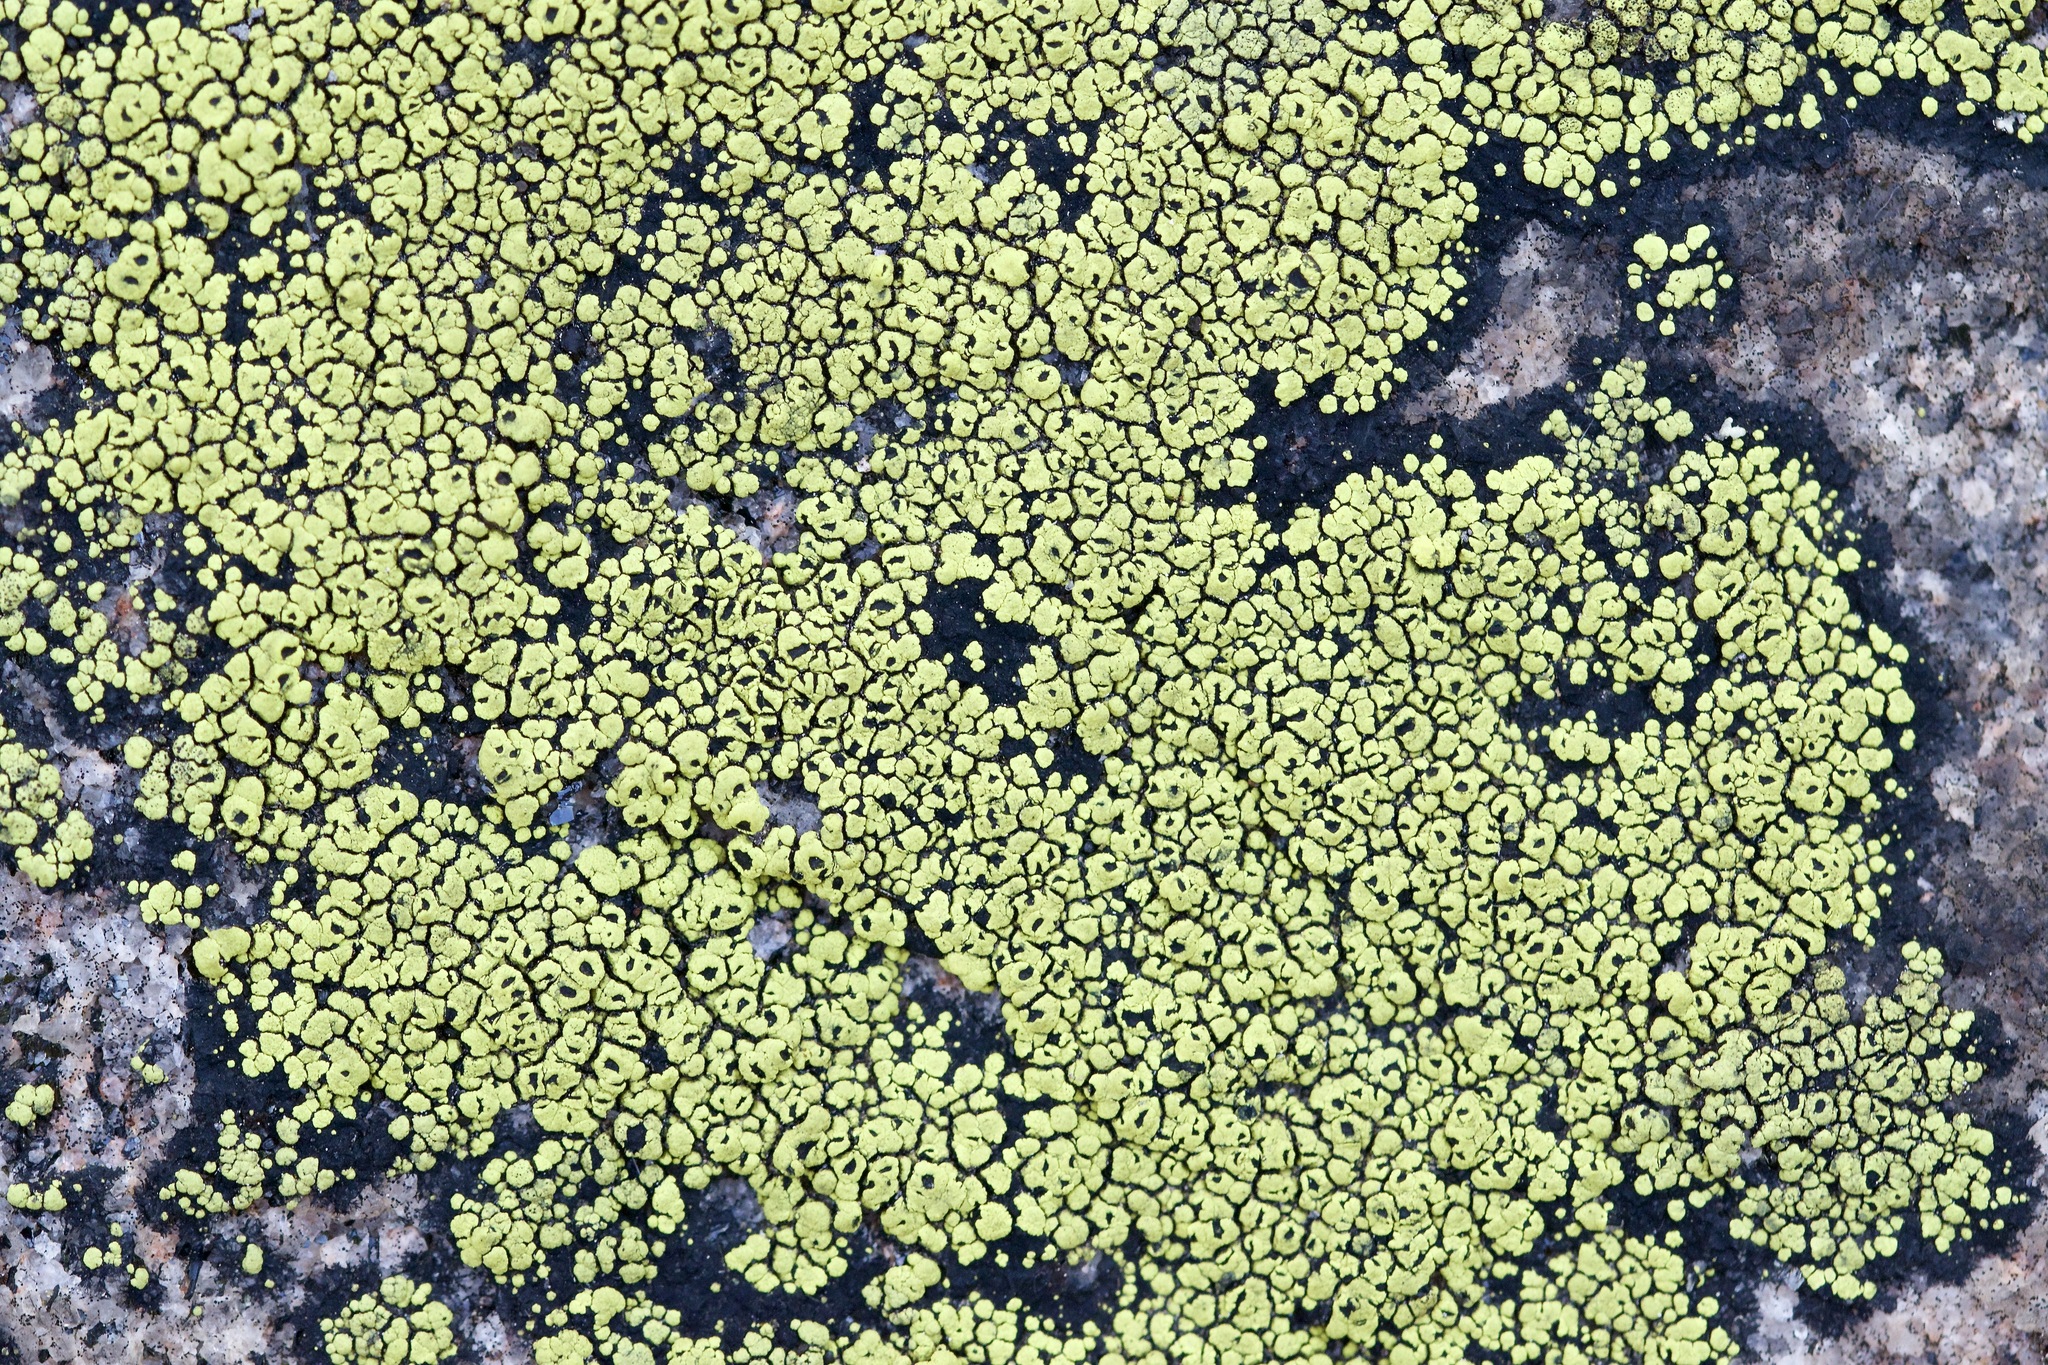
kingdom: Fungi
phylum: Ascomycota
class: Lecanoromycetes
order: Rhizocarpales
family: Rhizocarpaceae
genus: Rhizocarpon
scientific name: Rhizocarpon geographicum
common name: Yellow map lichen
